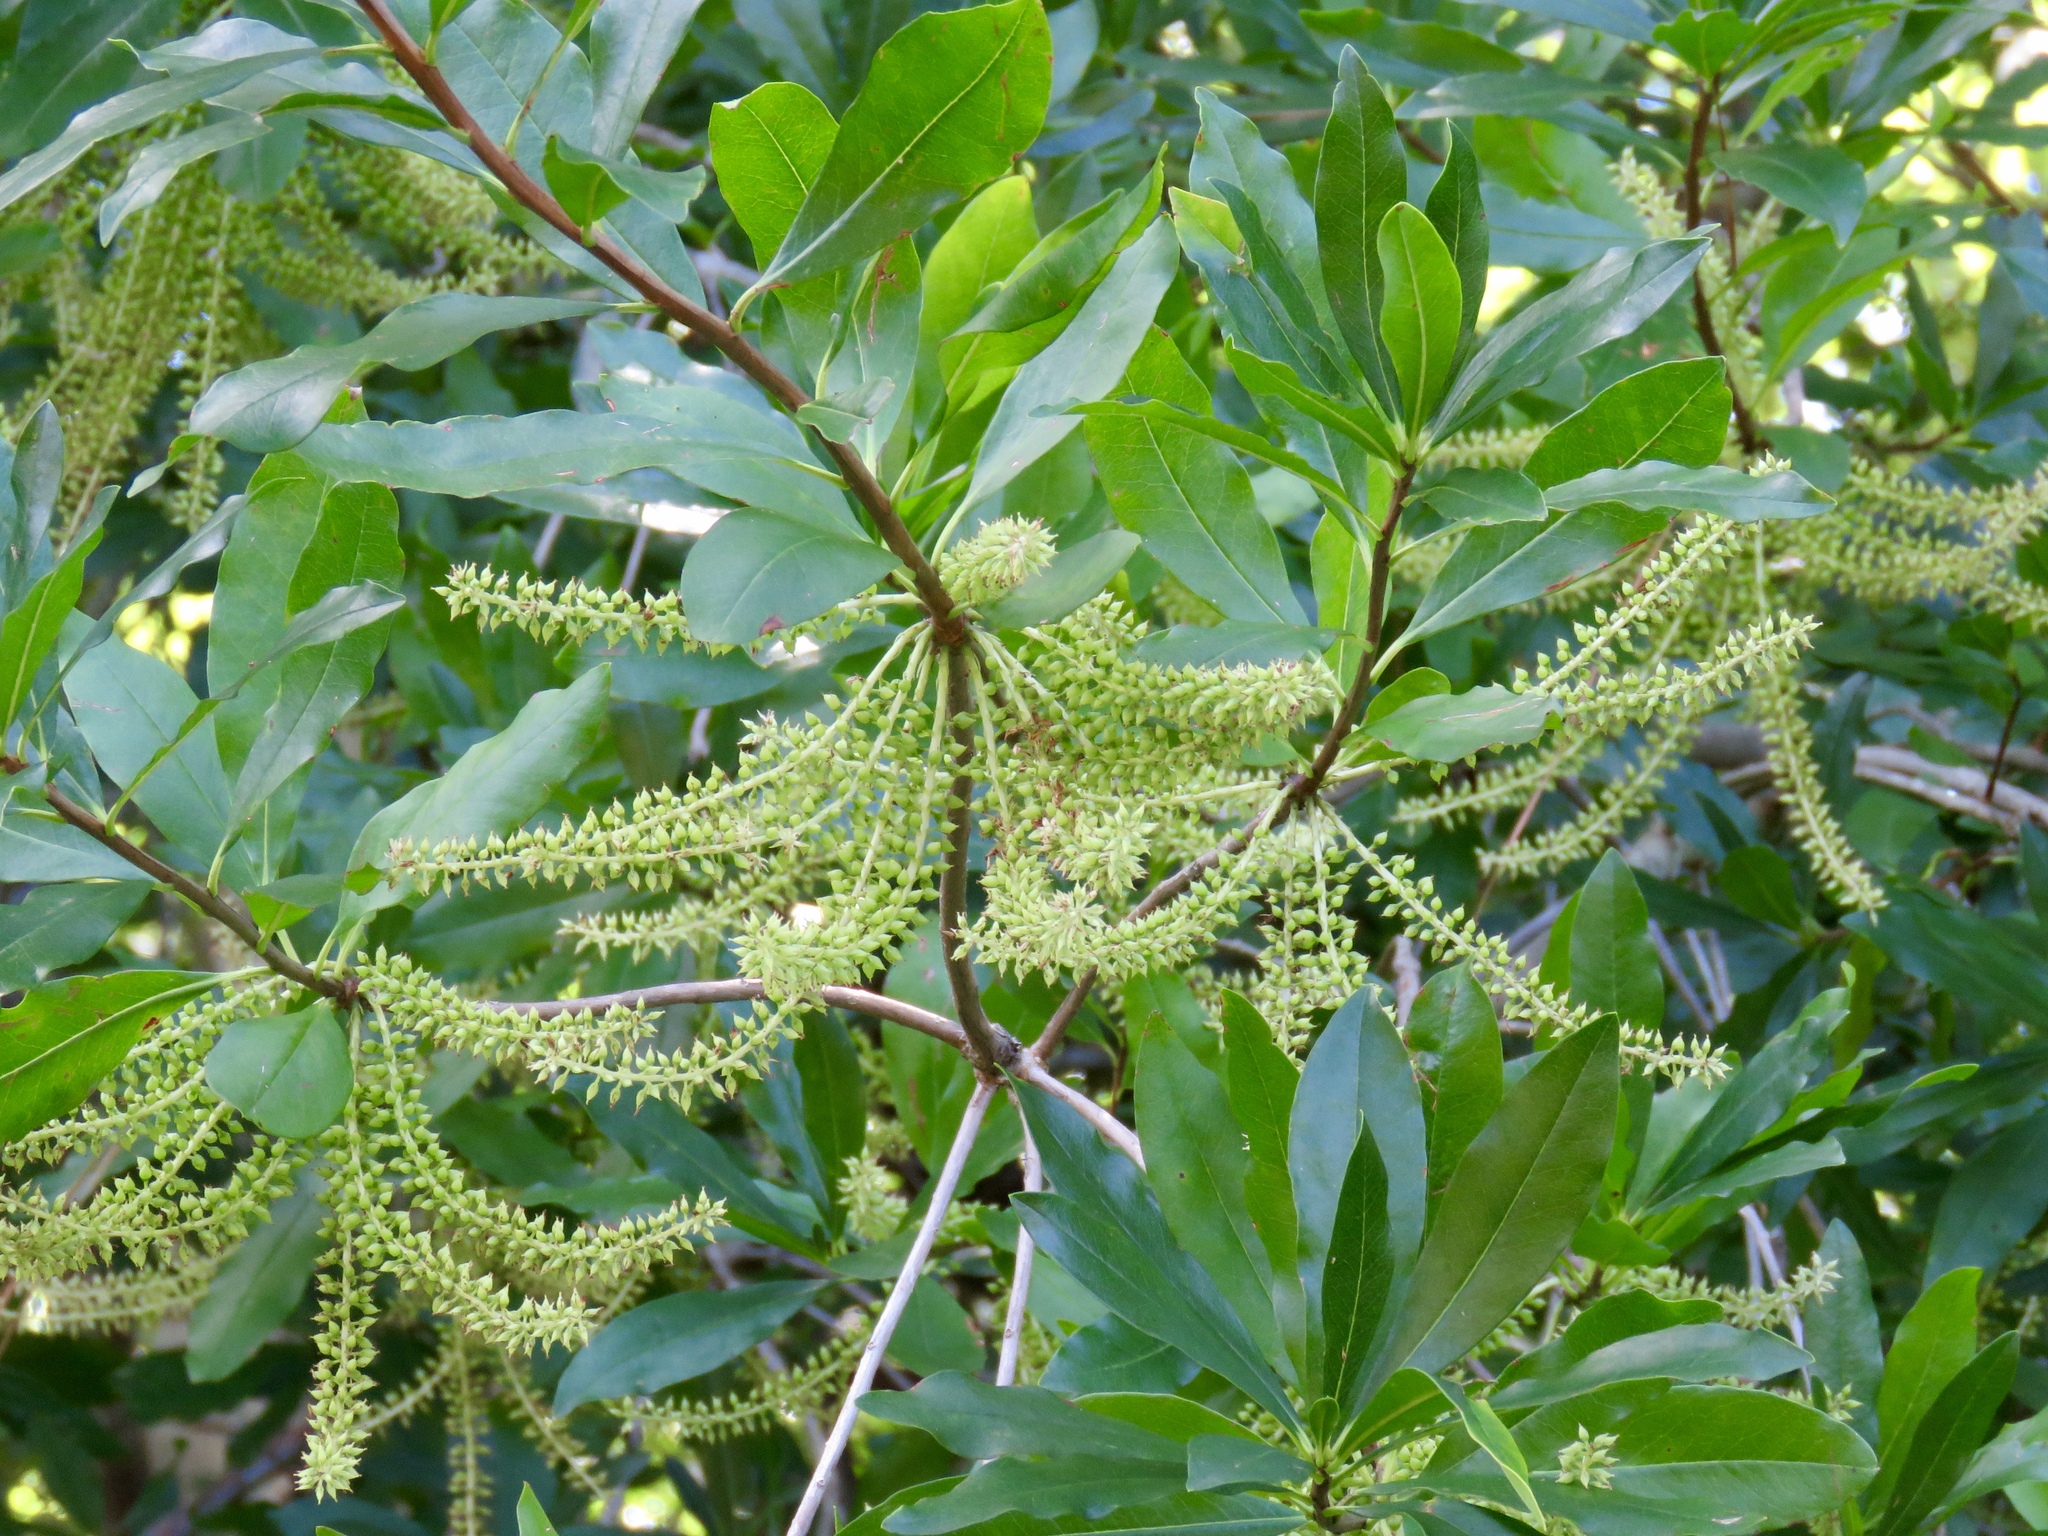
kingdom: Plantae
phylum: Tracheophyta
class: Magnoliopsida
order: Ericales
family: Cyrillaceae
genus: Cyrilla
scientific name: Cyrilla racemiflora
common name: Black titi
